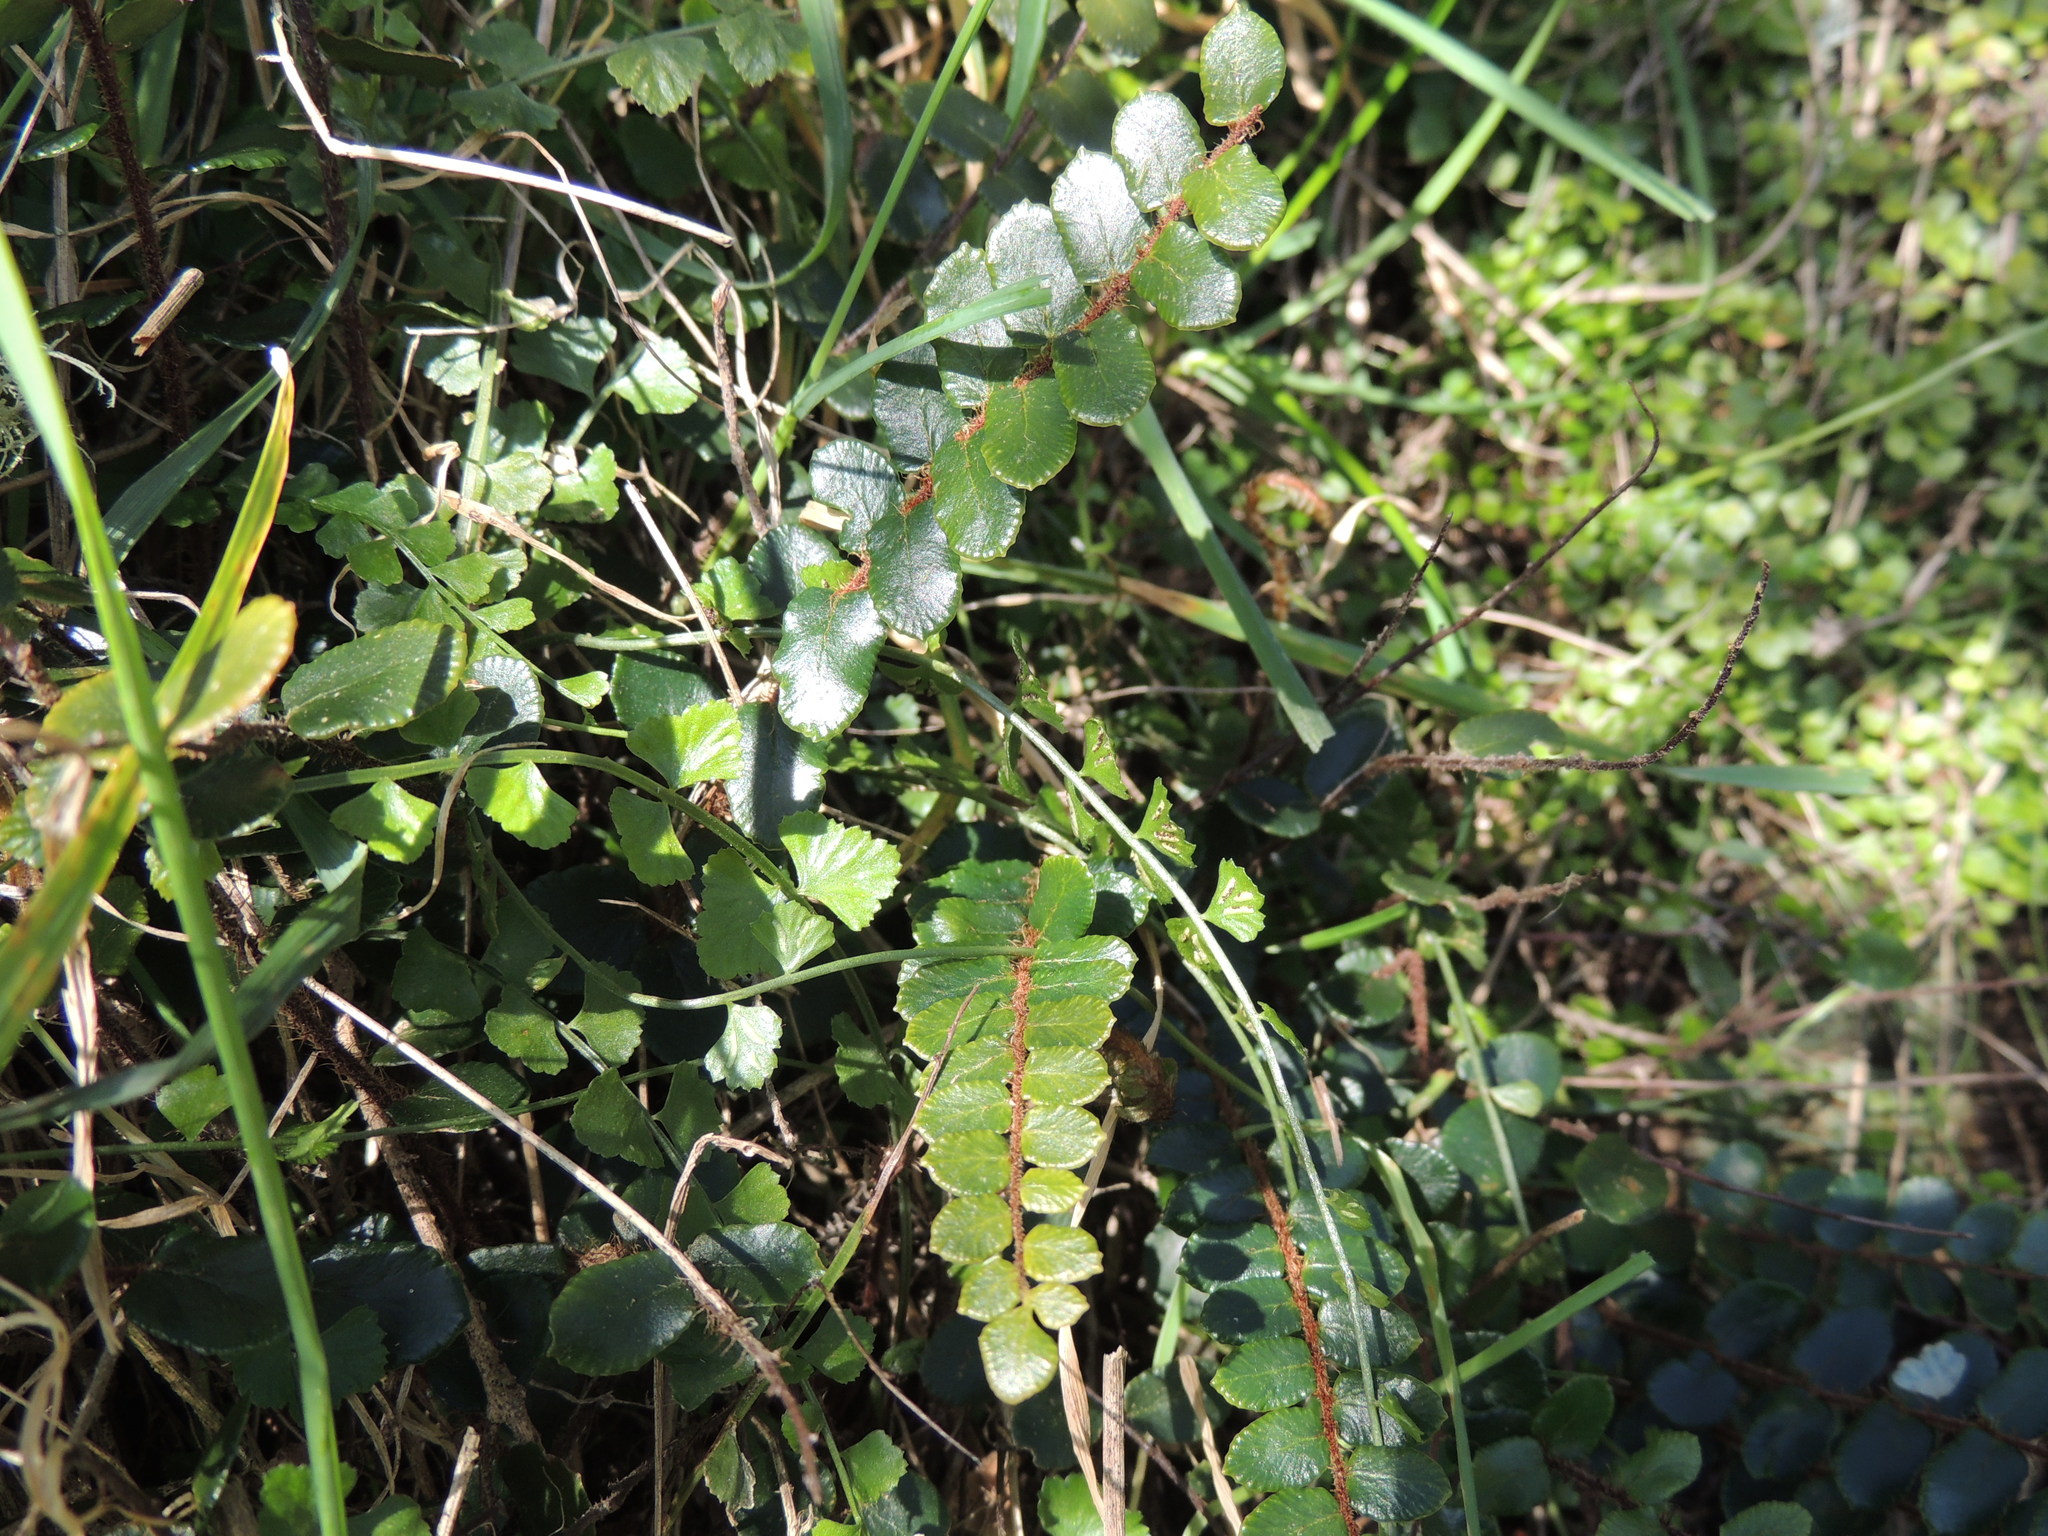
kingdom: Plantae
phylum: Tracheophyta
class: Polypodiopsida
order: Polypodiales
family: Pteridaceae
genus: Pellaea
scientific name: Pellaea rotundifolia
